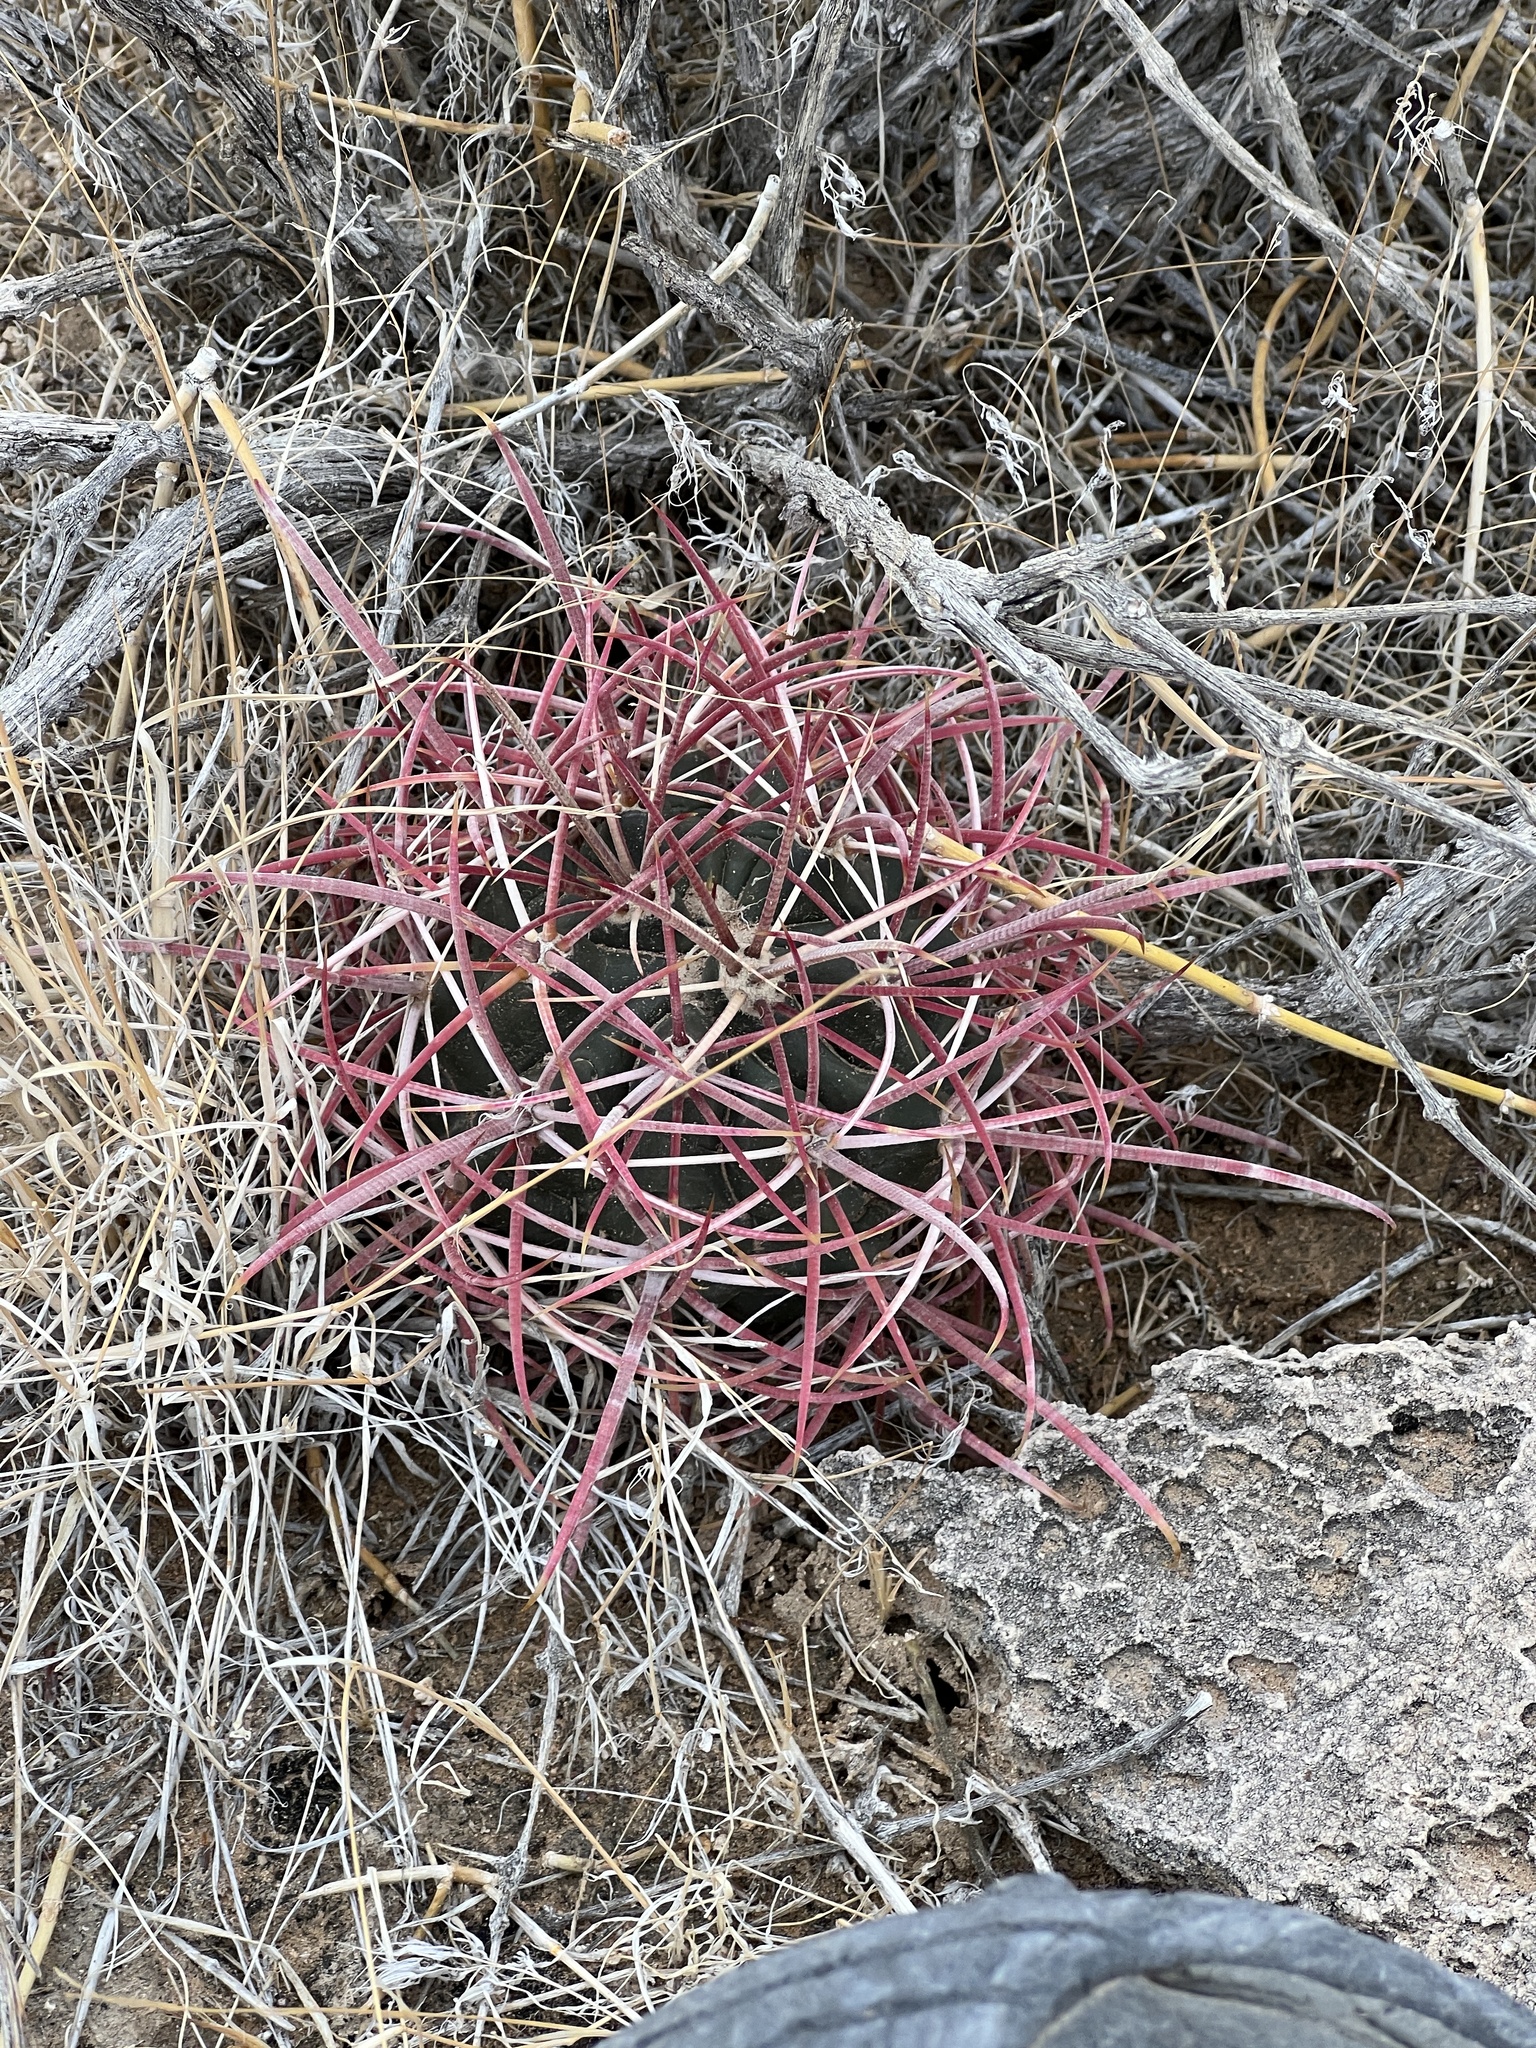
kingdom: Plantae
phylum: Tracheophyta
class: Magnoliopsida
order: Caryophyllales
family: Cactaceae
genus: Ferocactus
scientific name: Ferocactus cylindraceus
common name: California barrel cactus
